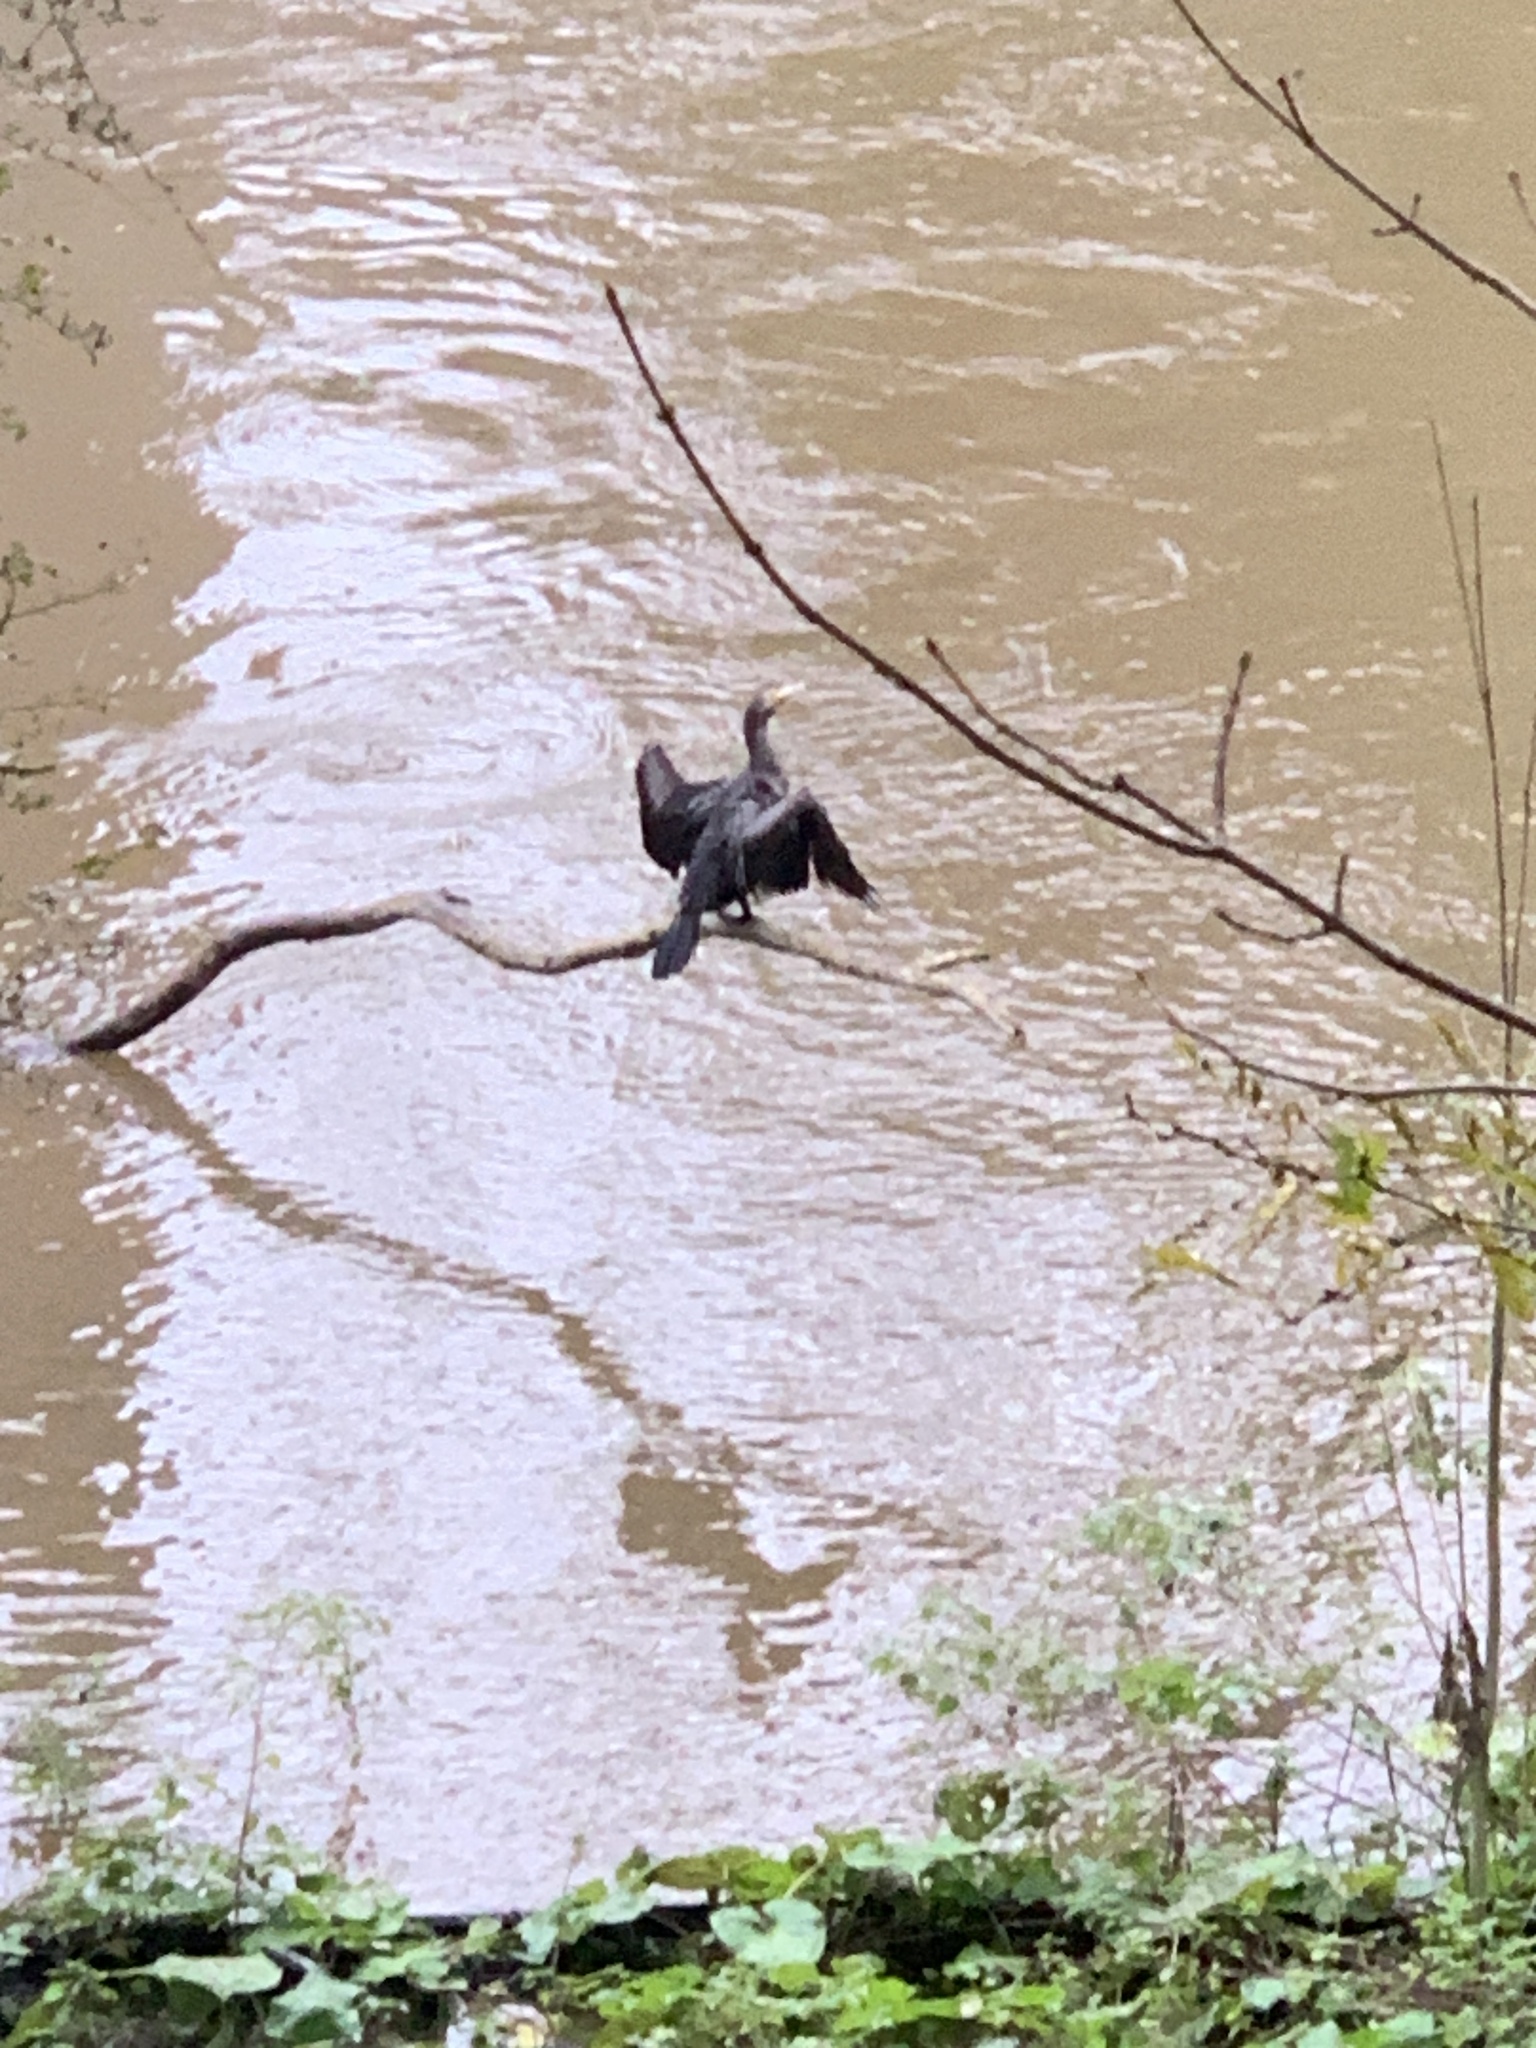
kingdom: Animalia
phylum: Chordata
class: Aves
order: Suliformes
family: Phalacrocoracidae
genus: Phalacrocorax
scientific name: Phalacrocorax carbo
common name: Great cormorant
